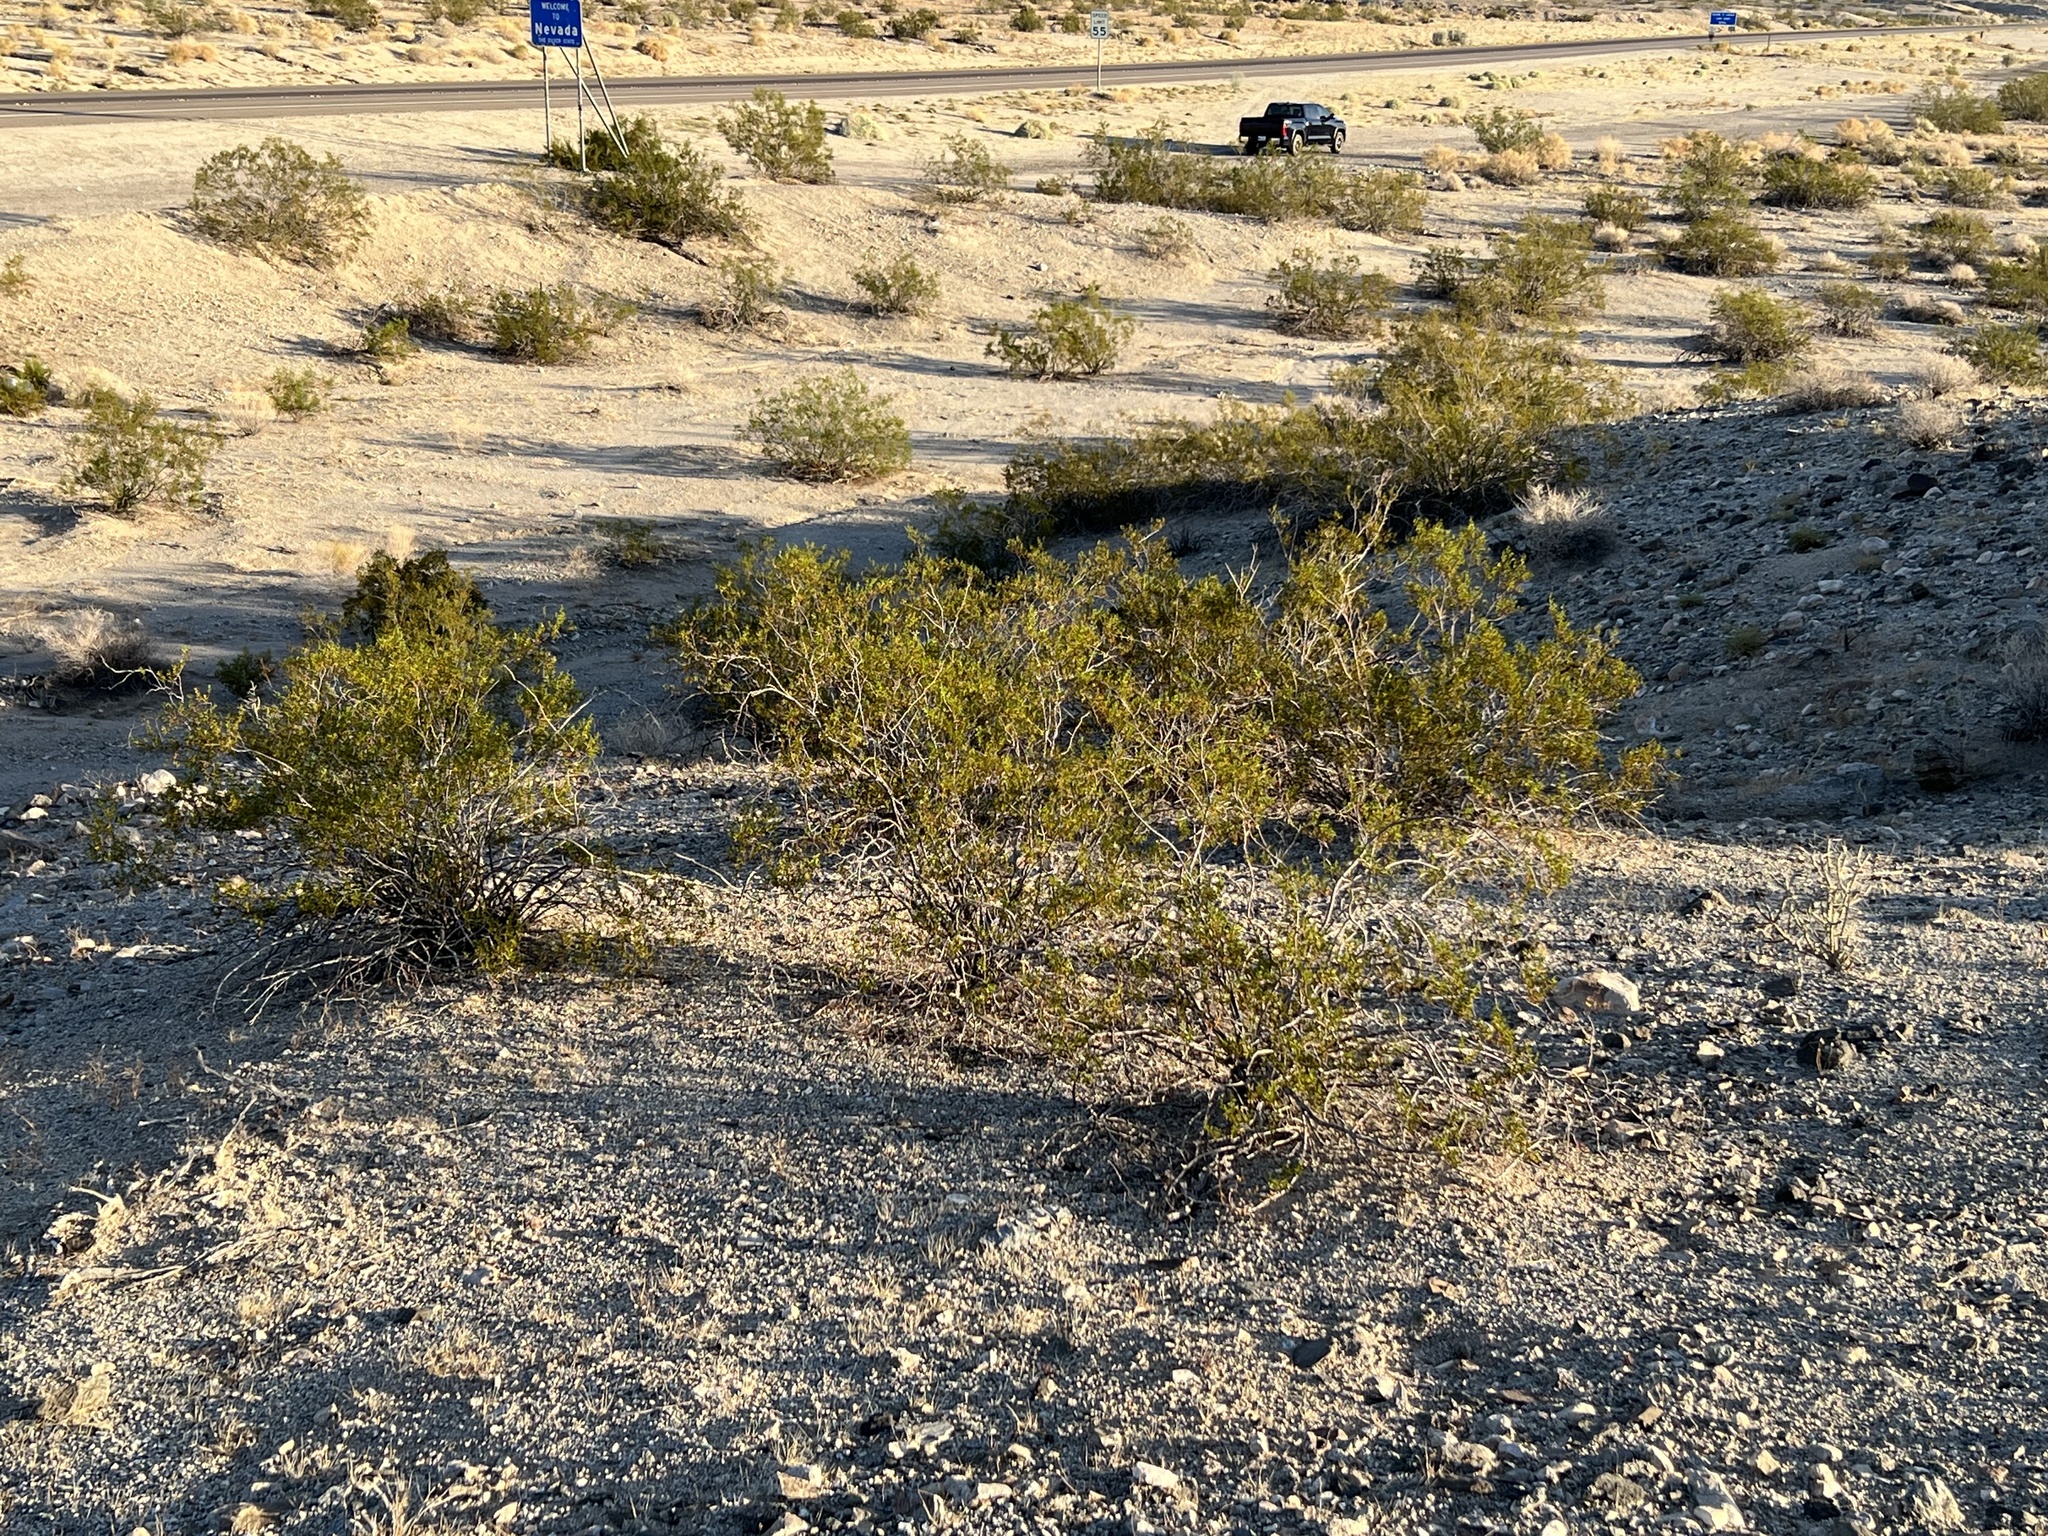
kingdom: Plantae
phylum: Tracheophyta
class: Magnoliopsida
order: Zygophyllales
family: Zygophyllaceae
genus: Larrea
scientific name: Larrea tridentata
